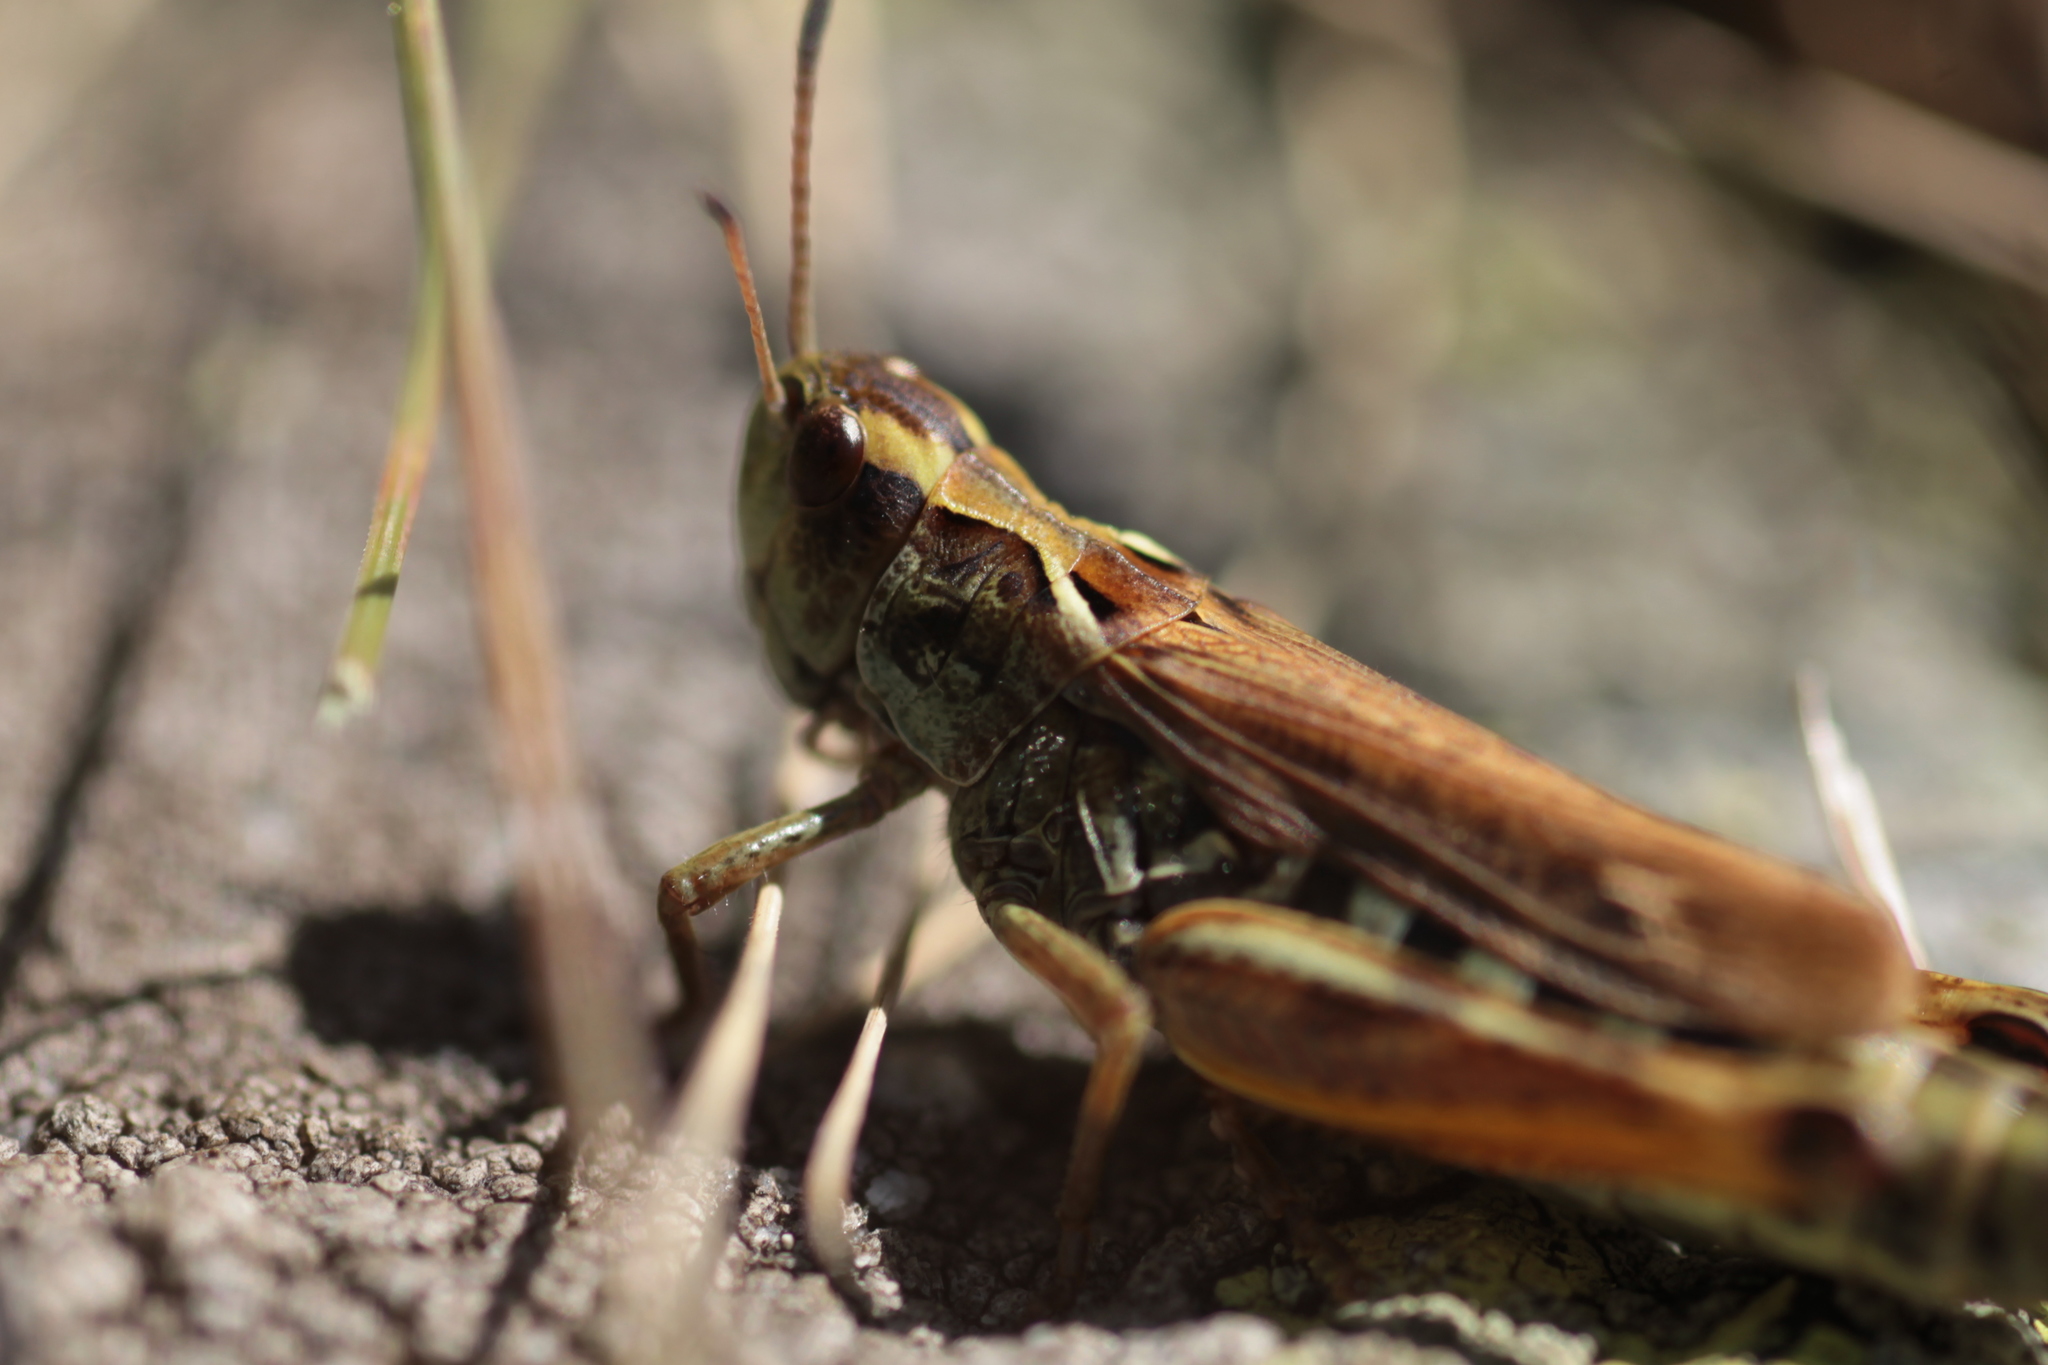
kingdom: Animalia
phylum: Arthropoda
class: Insecta
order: Orthoptera
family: Acrididae
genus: Gomphocerus
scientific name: Gomphocerus sibiricus
